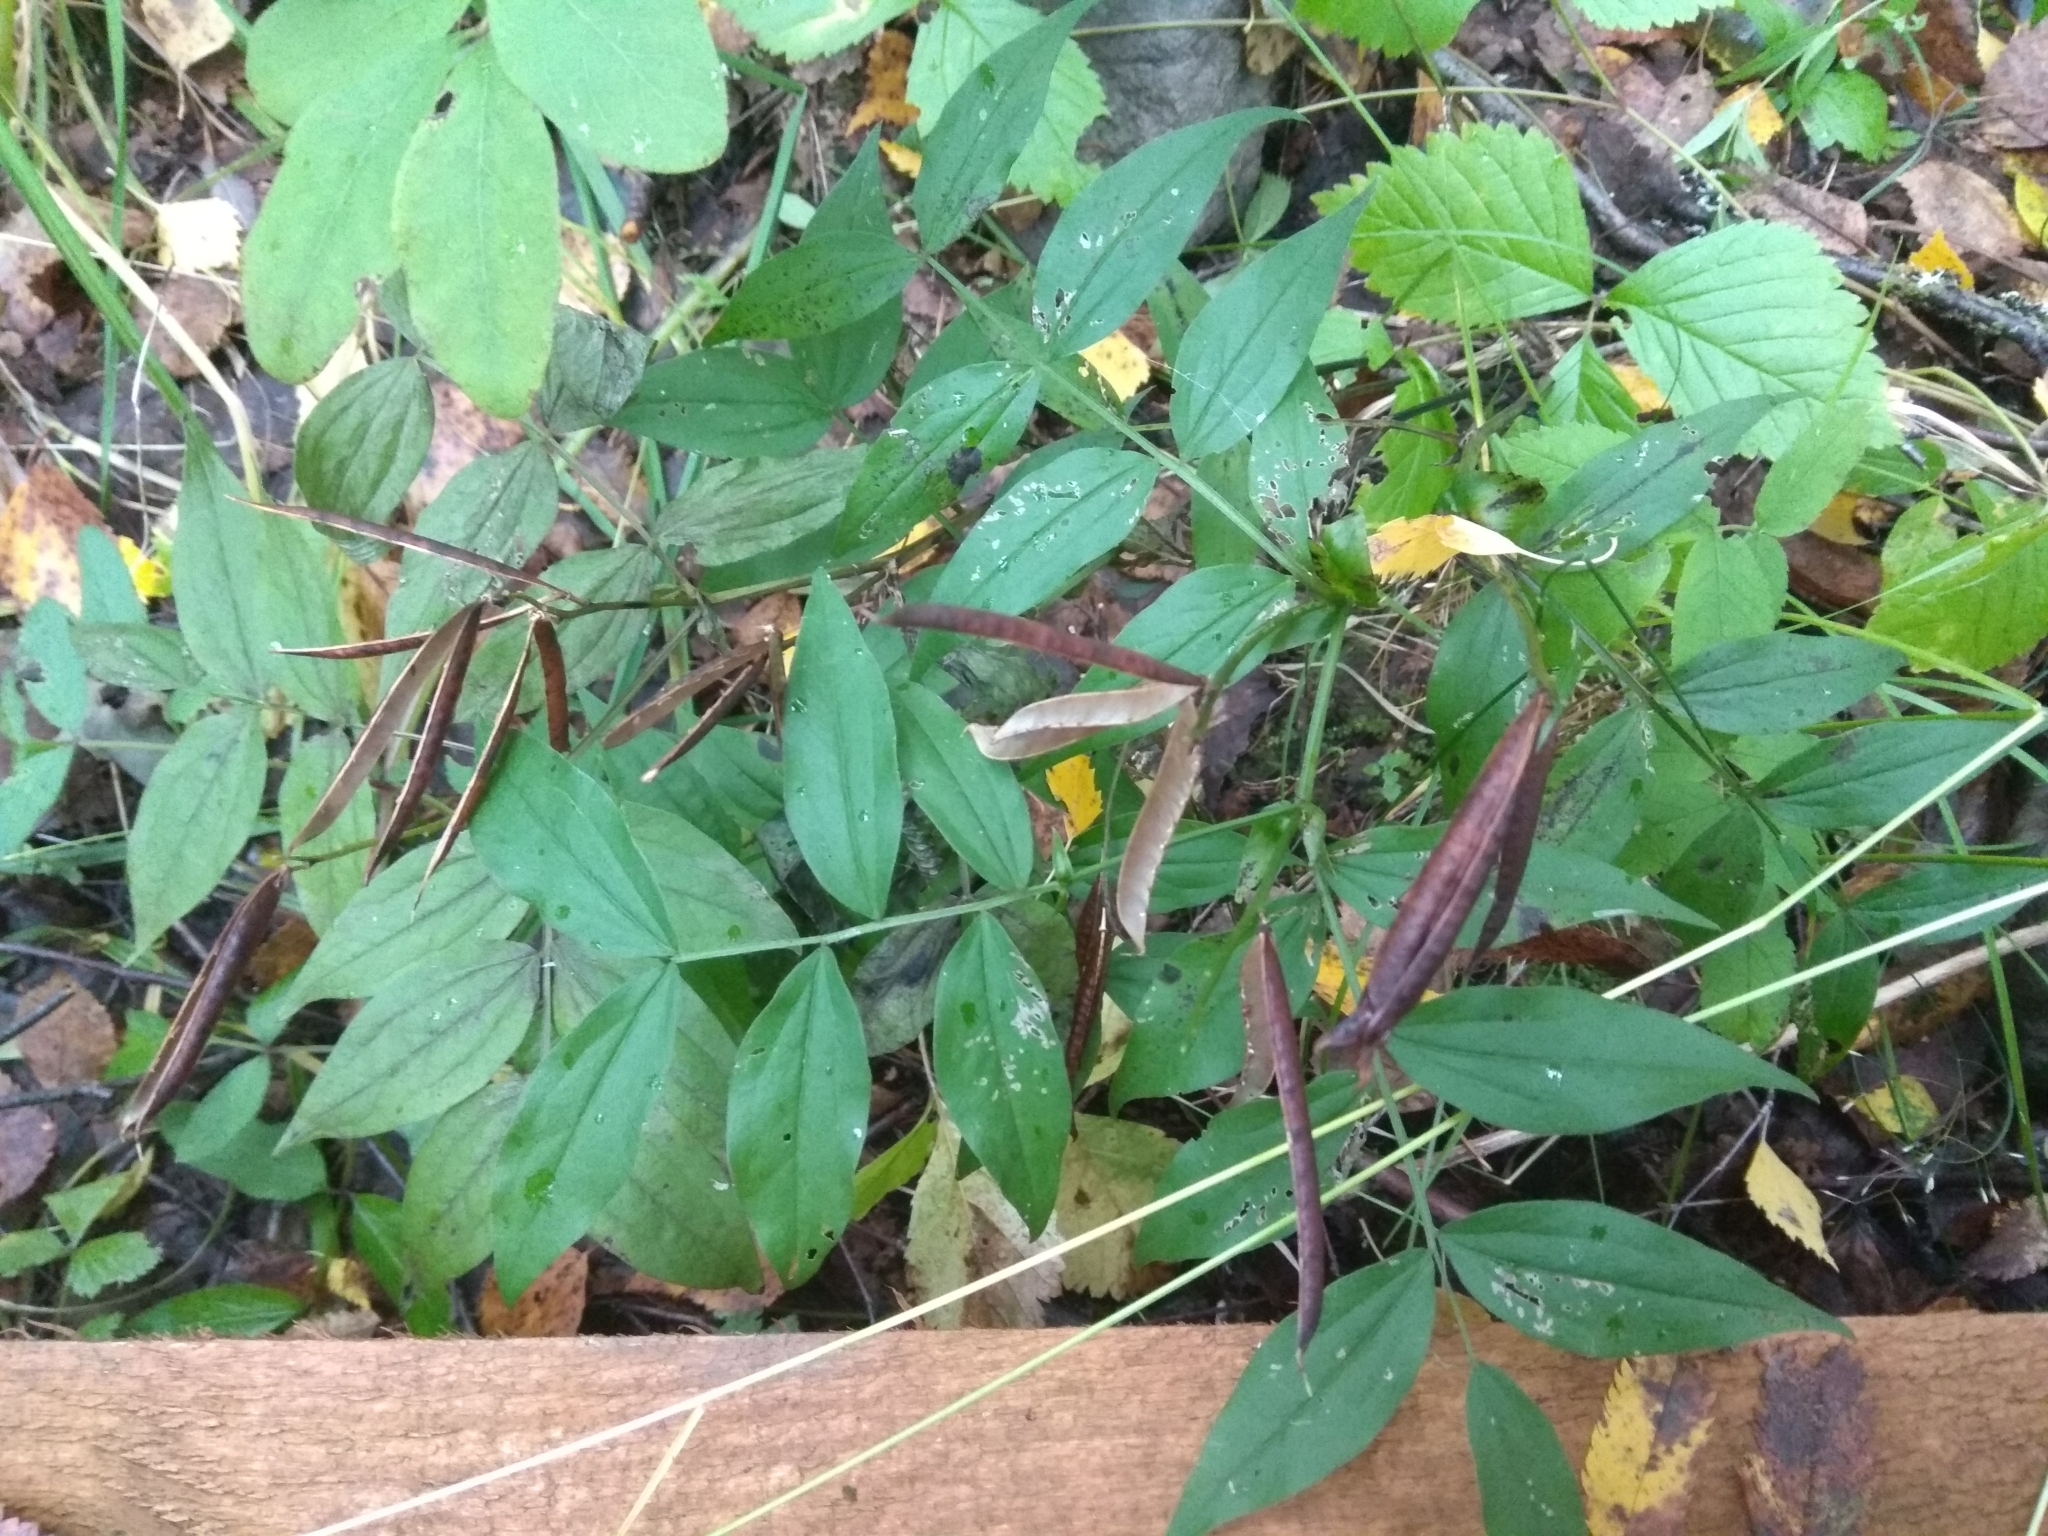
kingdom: Plantae
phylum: Tracheophyta
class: Magnoliopsida
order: Fabales
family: Fabaceae
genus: Lathyrus
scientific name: Lathyrus vernus
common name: Spring pea
